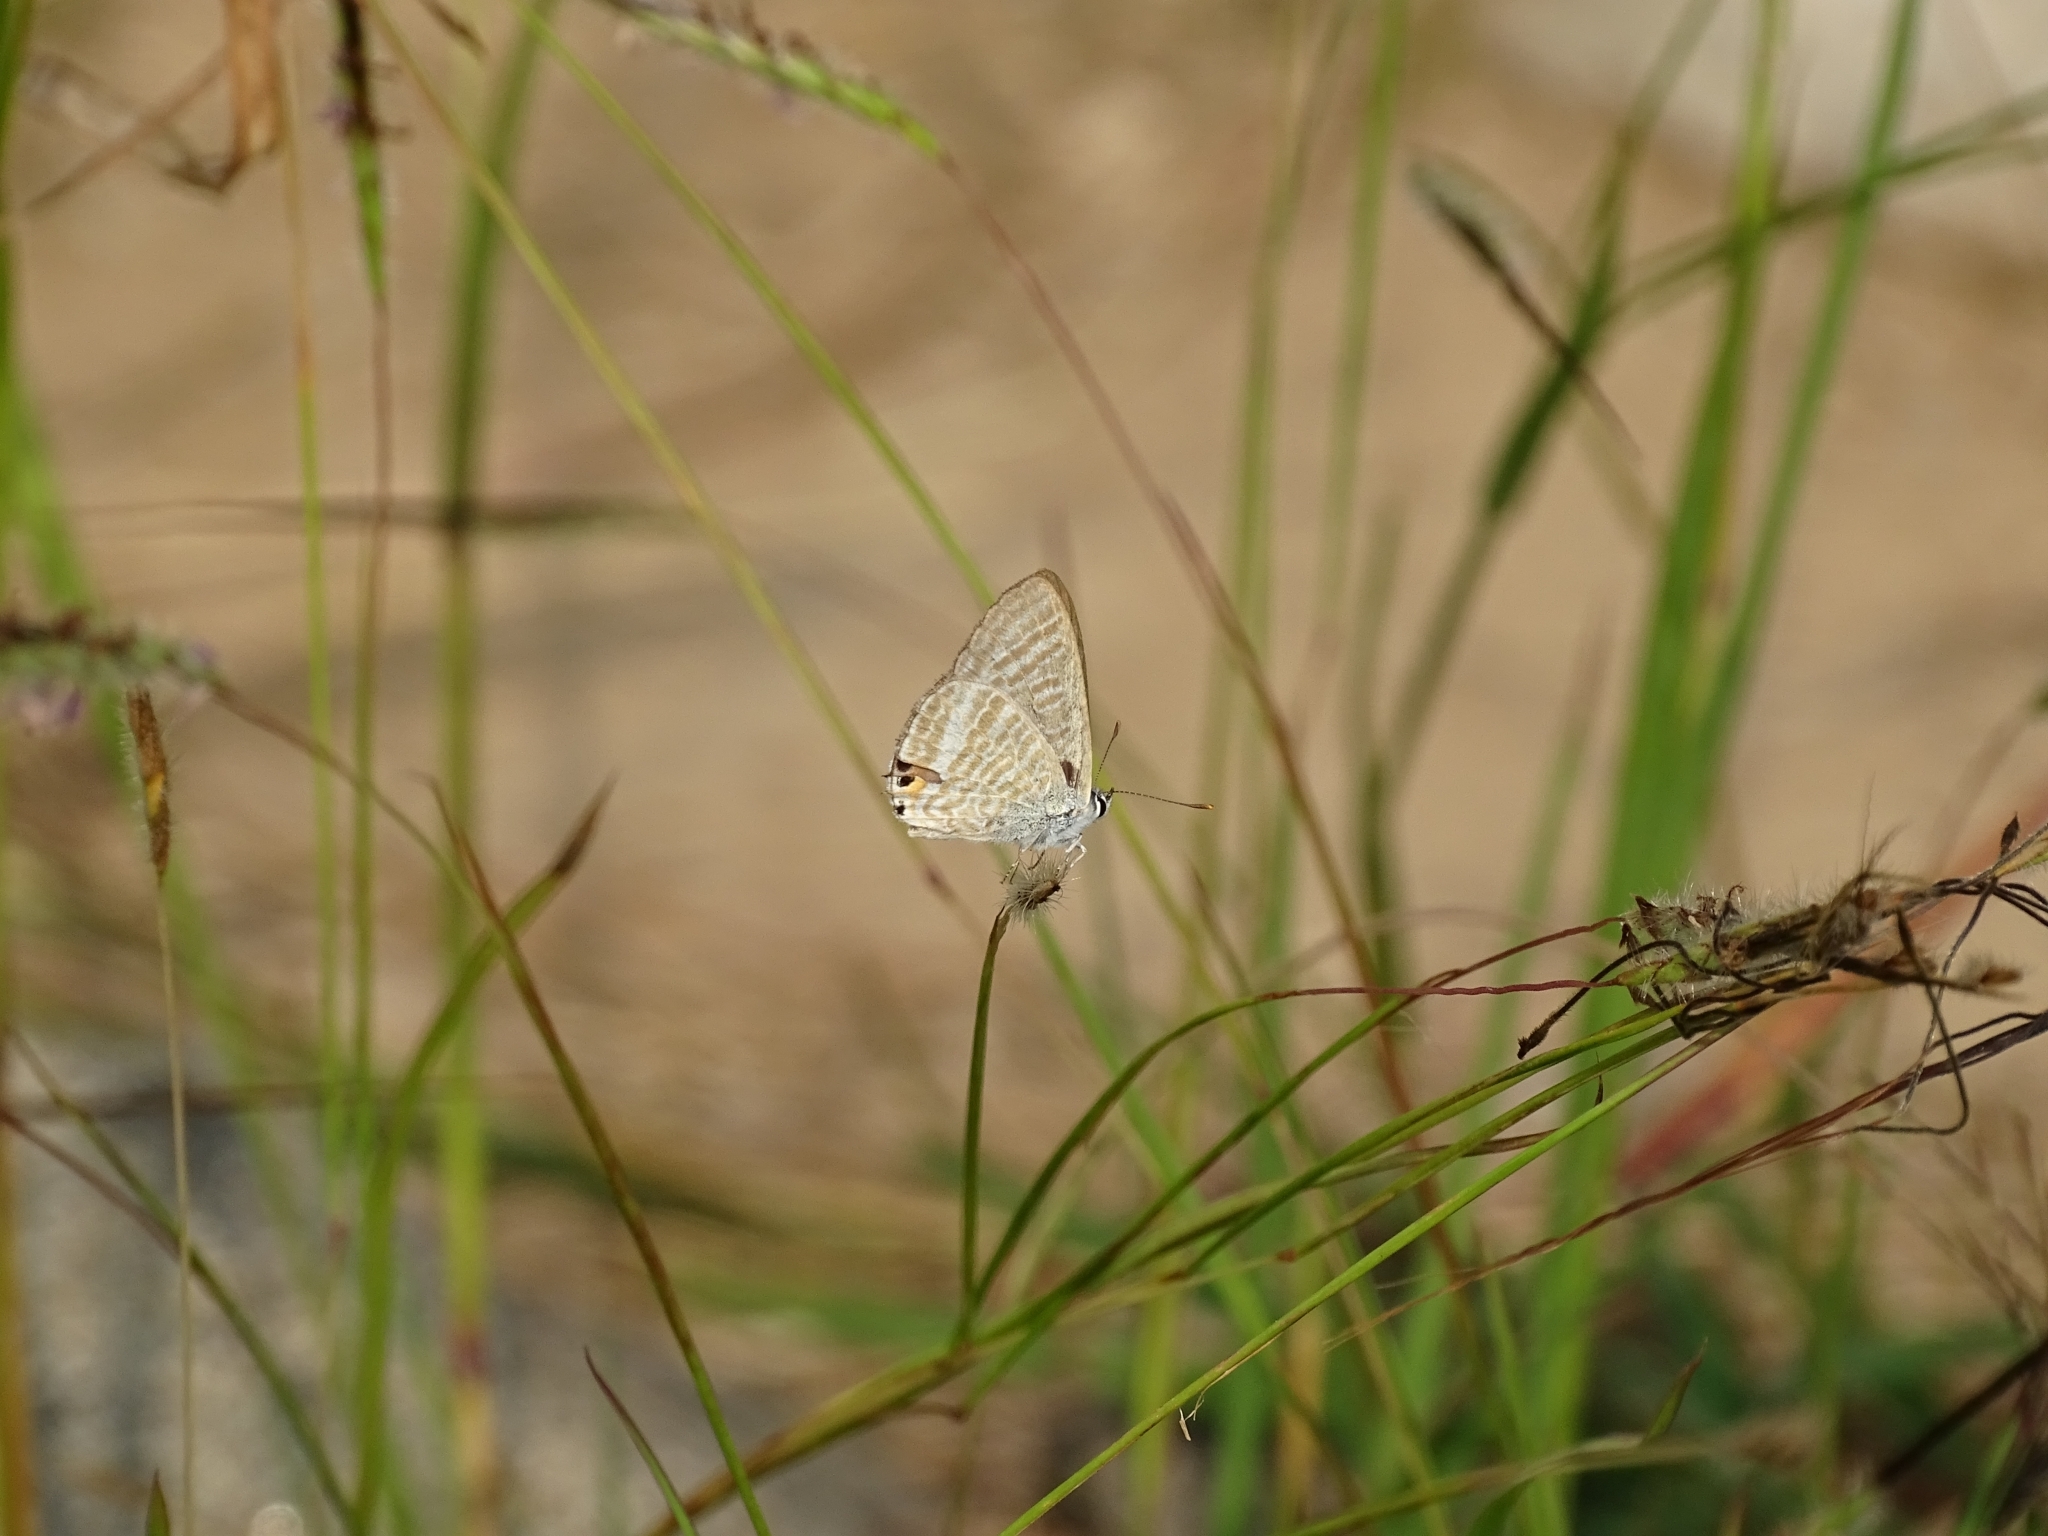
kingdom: Animalia
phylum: Arthropoda
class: Insecta
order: Lepidoptera
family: Lycaenidae
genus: Lampides
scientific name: Lampides boeticus
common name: Long-tailed blue
